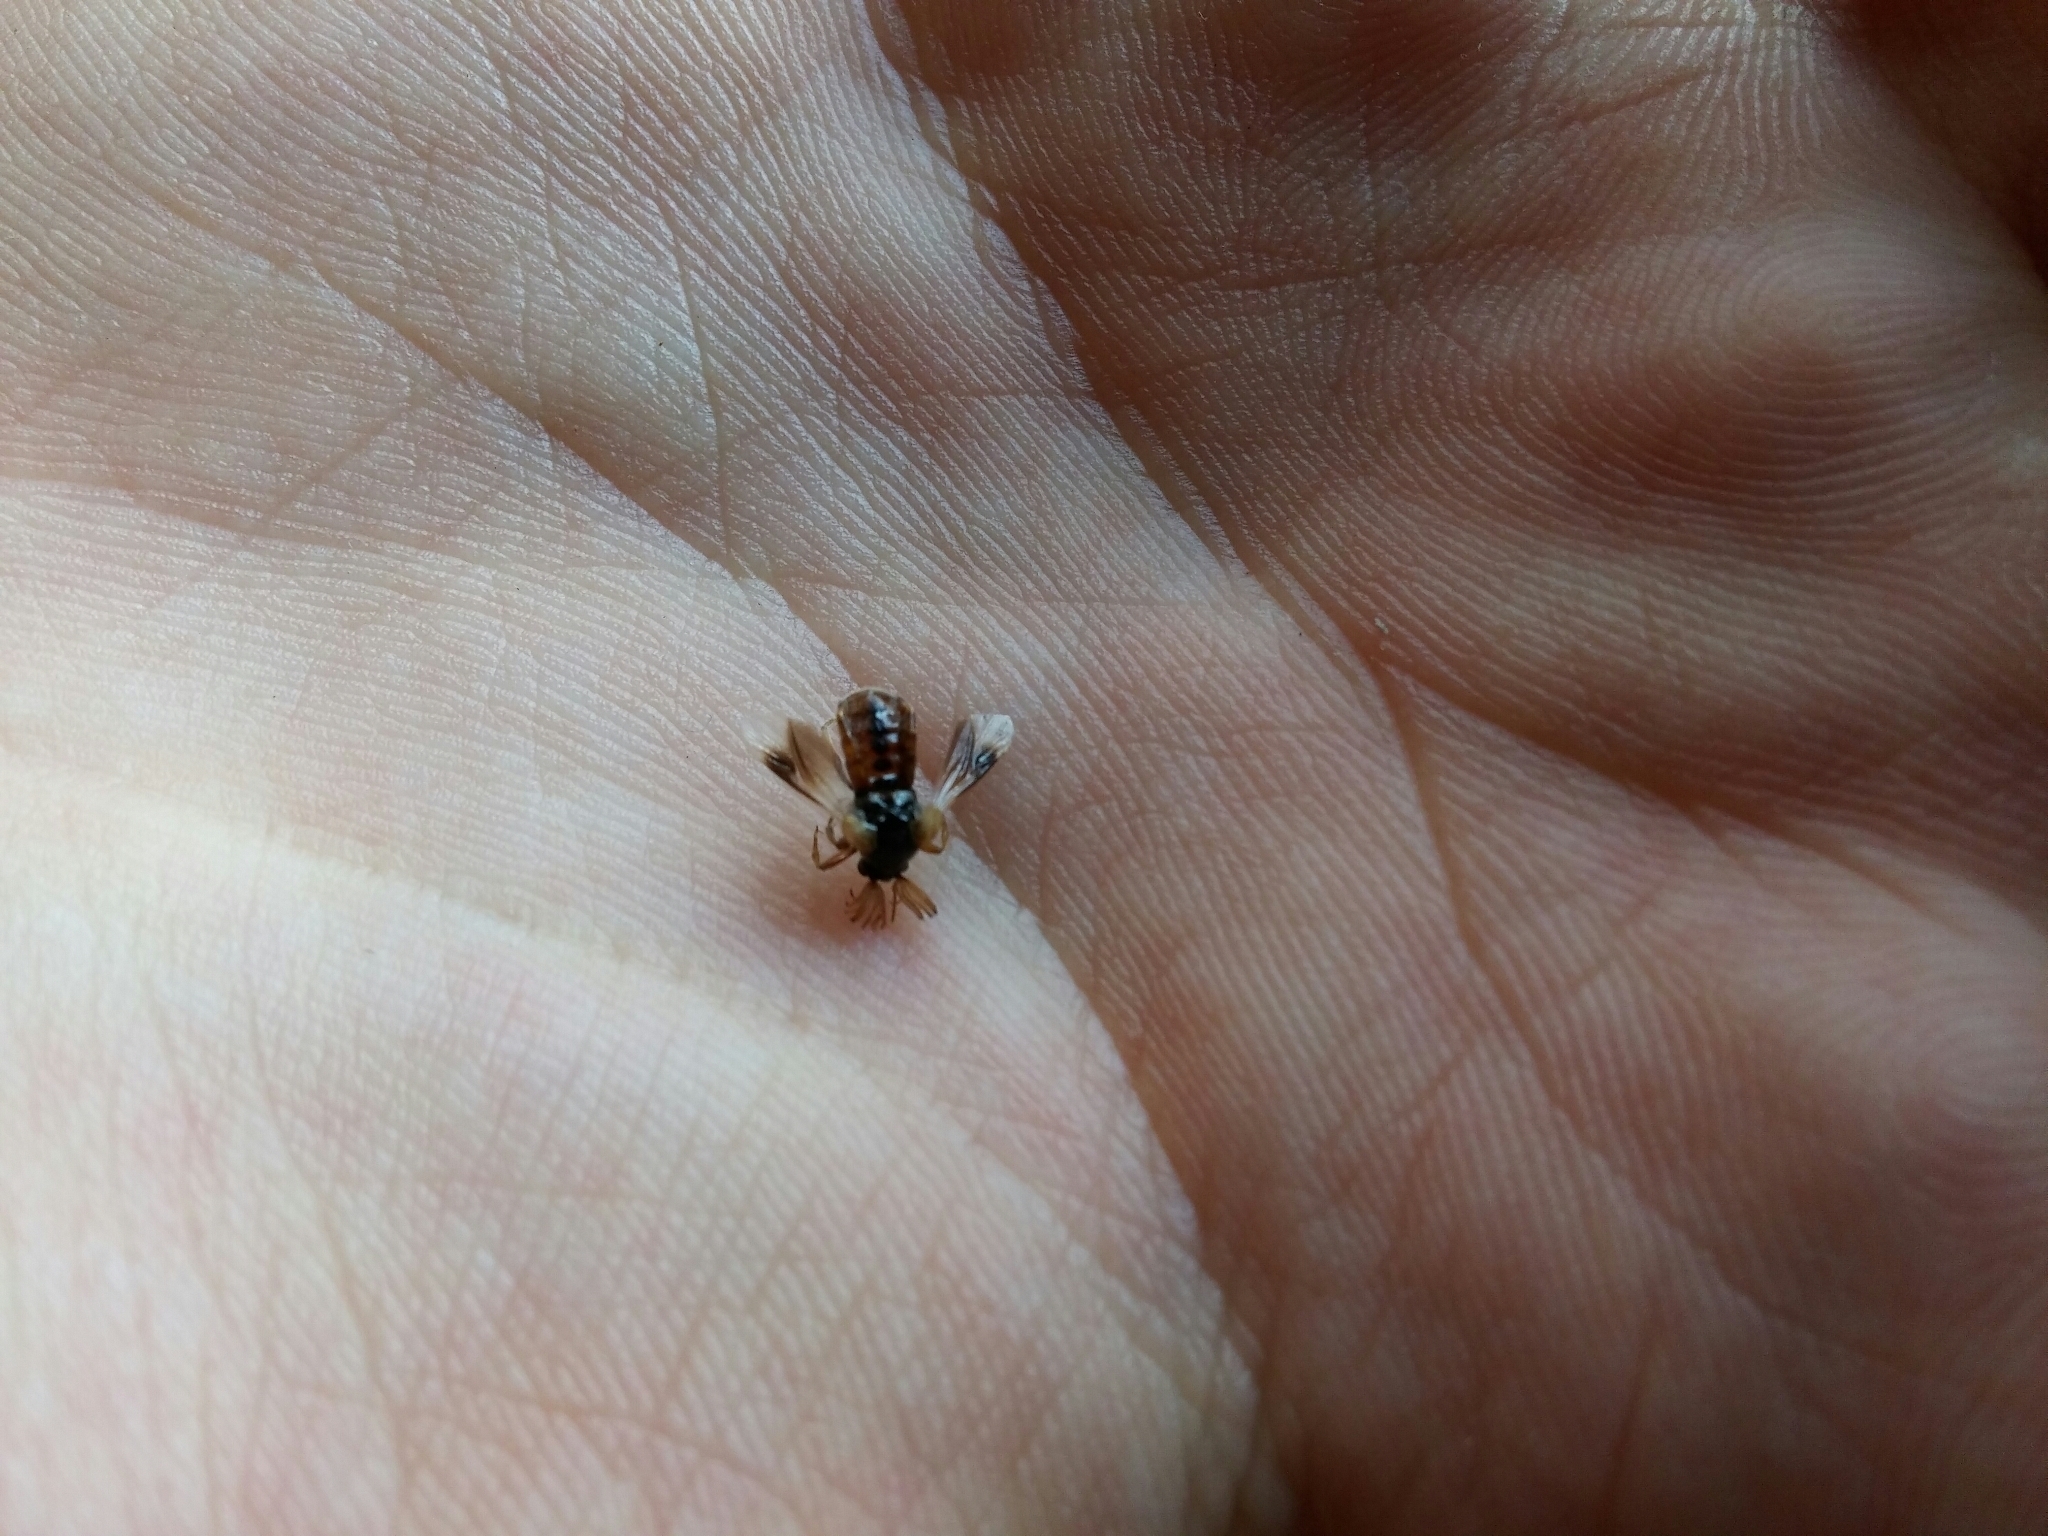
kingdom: Animalia
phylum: Arthropoda
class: Insecta
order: Coleoptera
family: Ripiphoridae
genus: Ripiphorus
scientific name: Ripiphorus subdipterus
